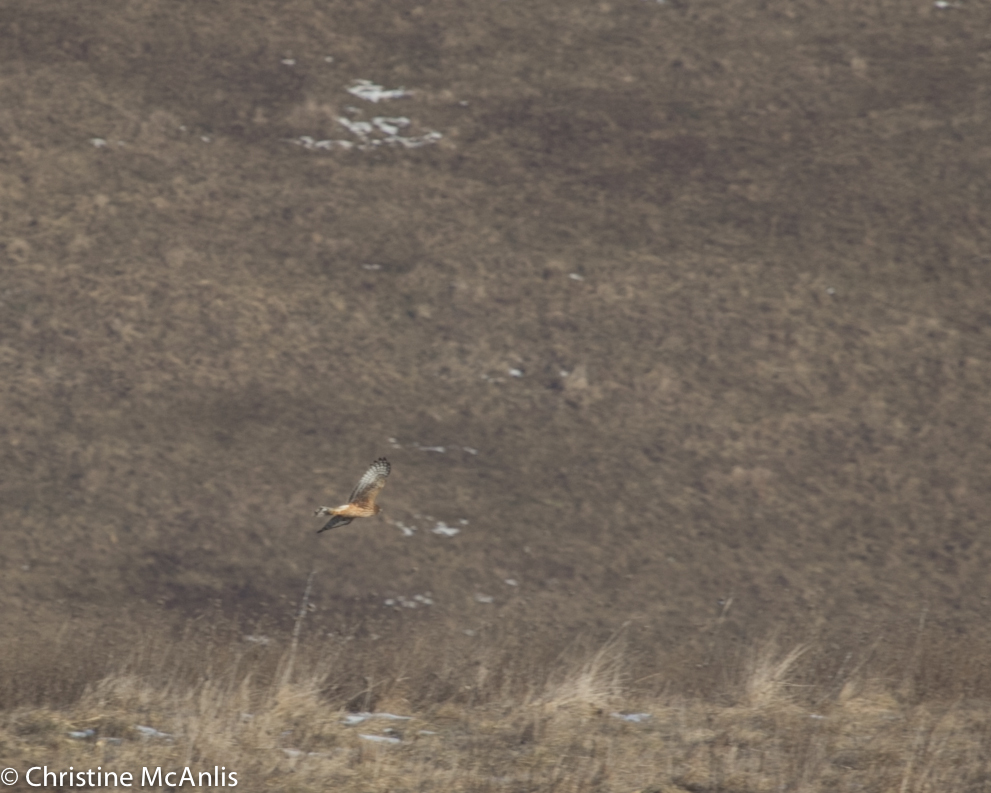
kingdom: Animalia
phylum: Chordata
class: Aves
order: Accipitriformes
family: Accipitridae
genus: Circus
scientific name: Circus cyaneus
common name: Hen harrier
